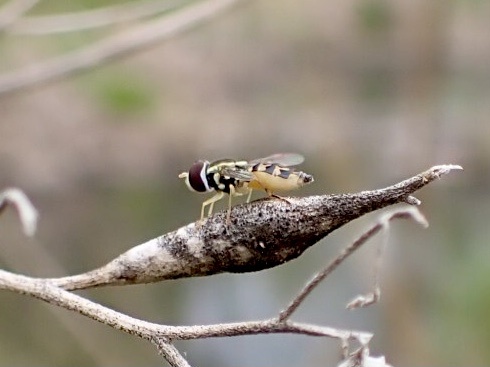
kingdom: Animalia
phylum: Arthropoda
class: Insecta
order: Diptera
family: Syrphidae
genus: Toxomerus
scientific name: Toxomerus geminatus
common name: Eastern calligrapher
